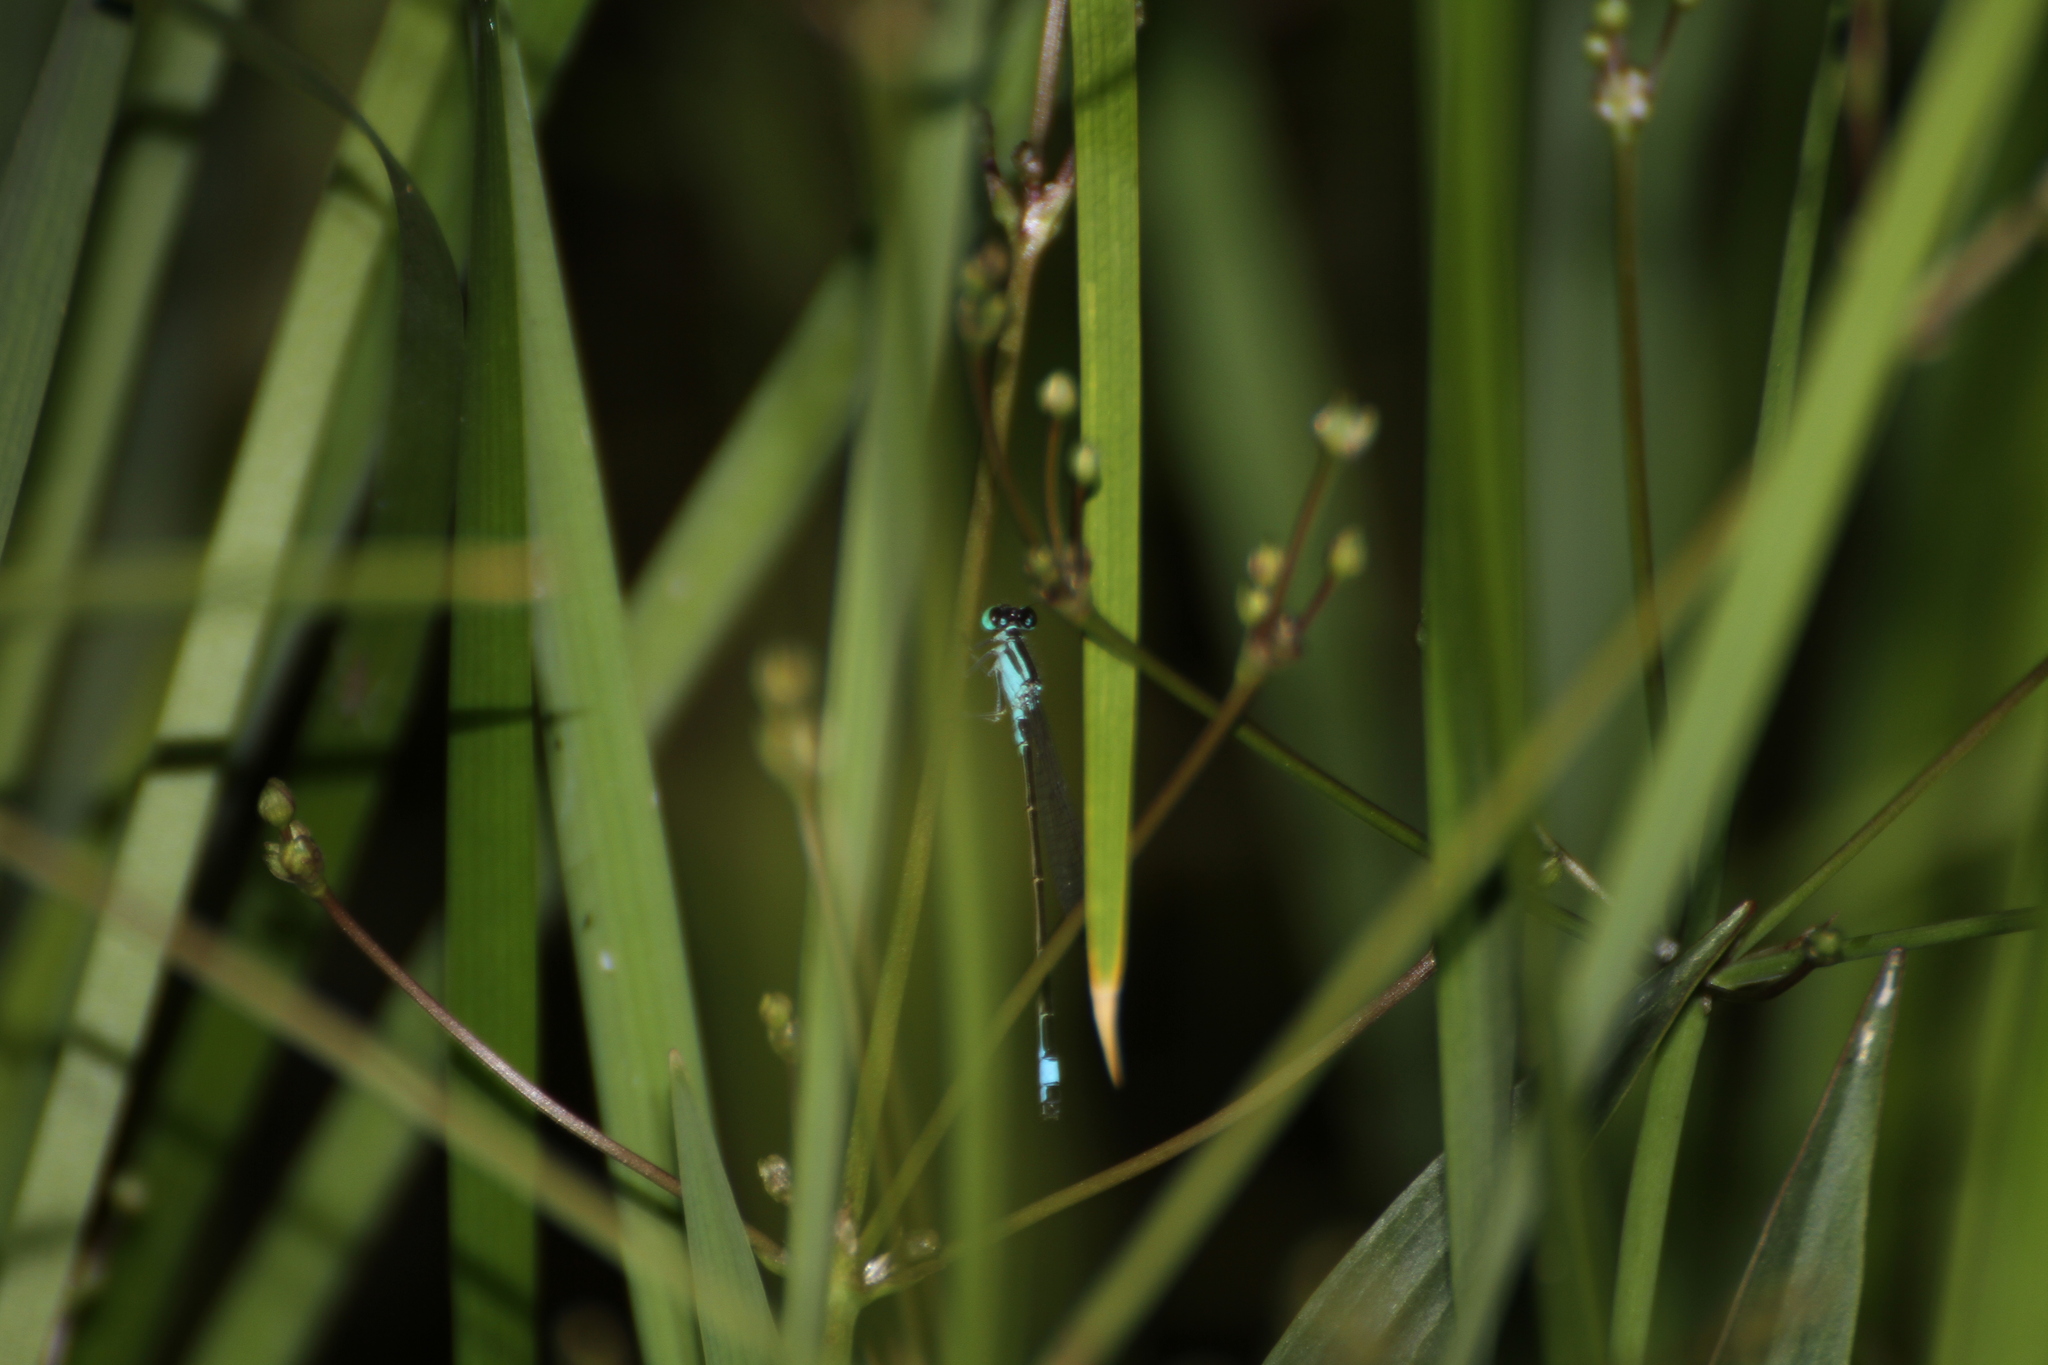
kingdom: Animalia
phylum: Arthropoda
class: Insecta
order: Odonata
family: Coenagrionidae
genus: Ischnura
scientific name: Ischnura elegans
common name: Blue-tailed damselfly
